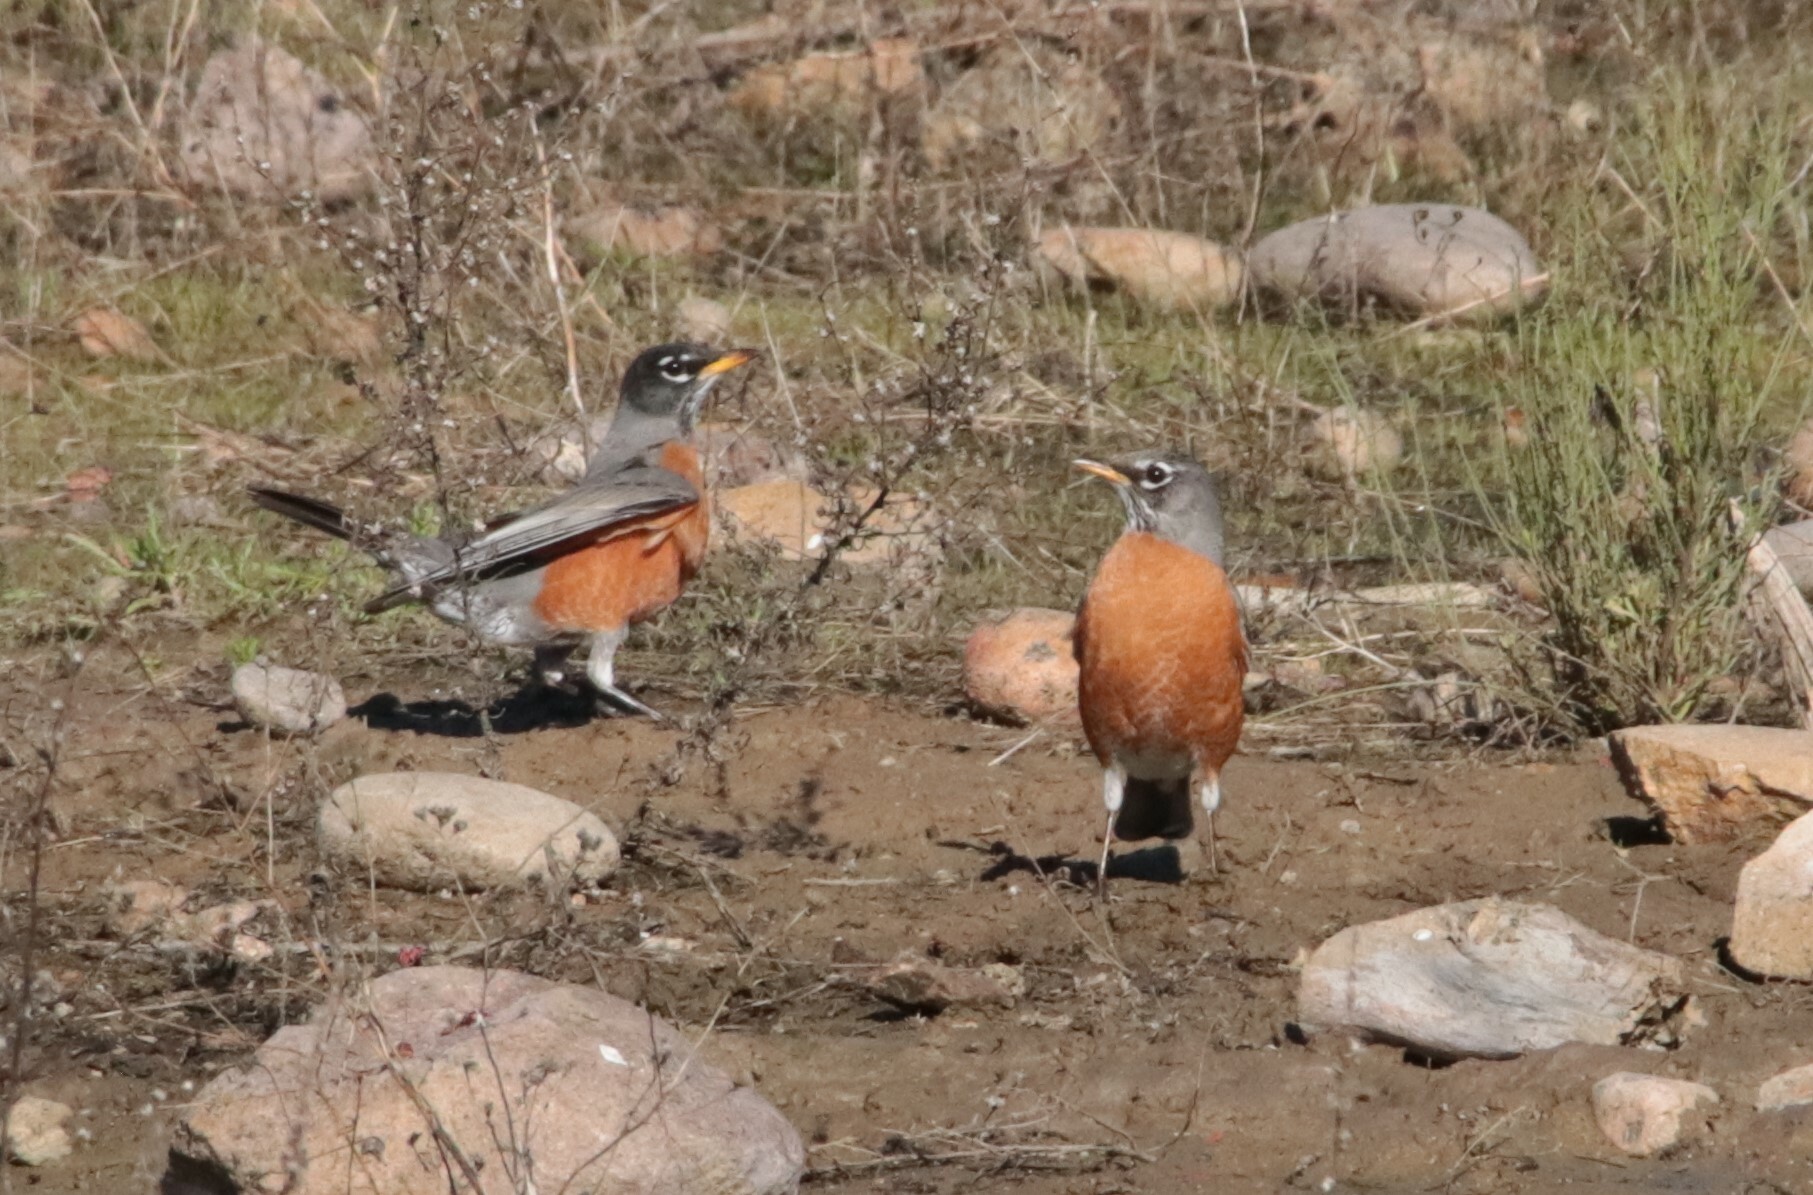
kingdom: Animalia
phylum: Chordata
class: Aves
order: Passeriformes
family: Turdidae
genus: Turdus
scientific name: Turdus migratorius
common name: American robin
